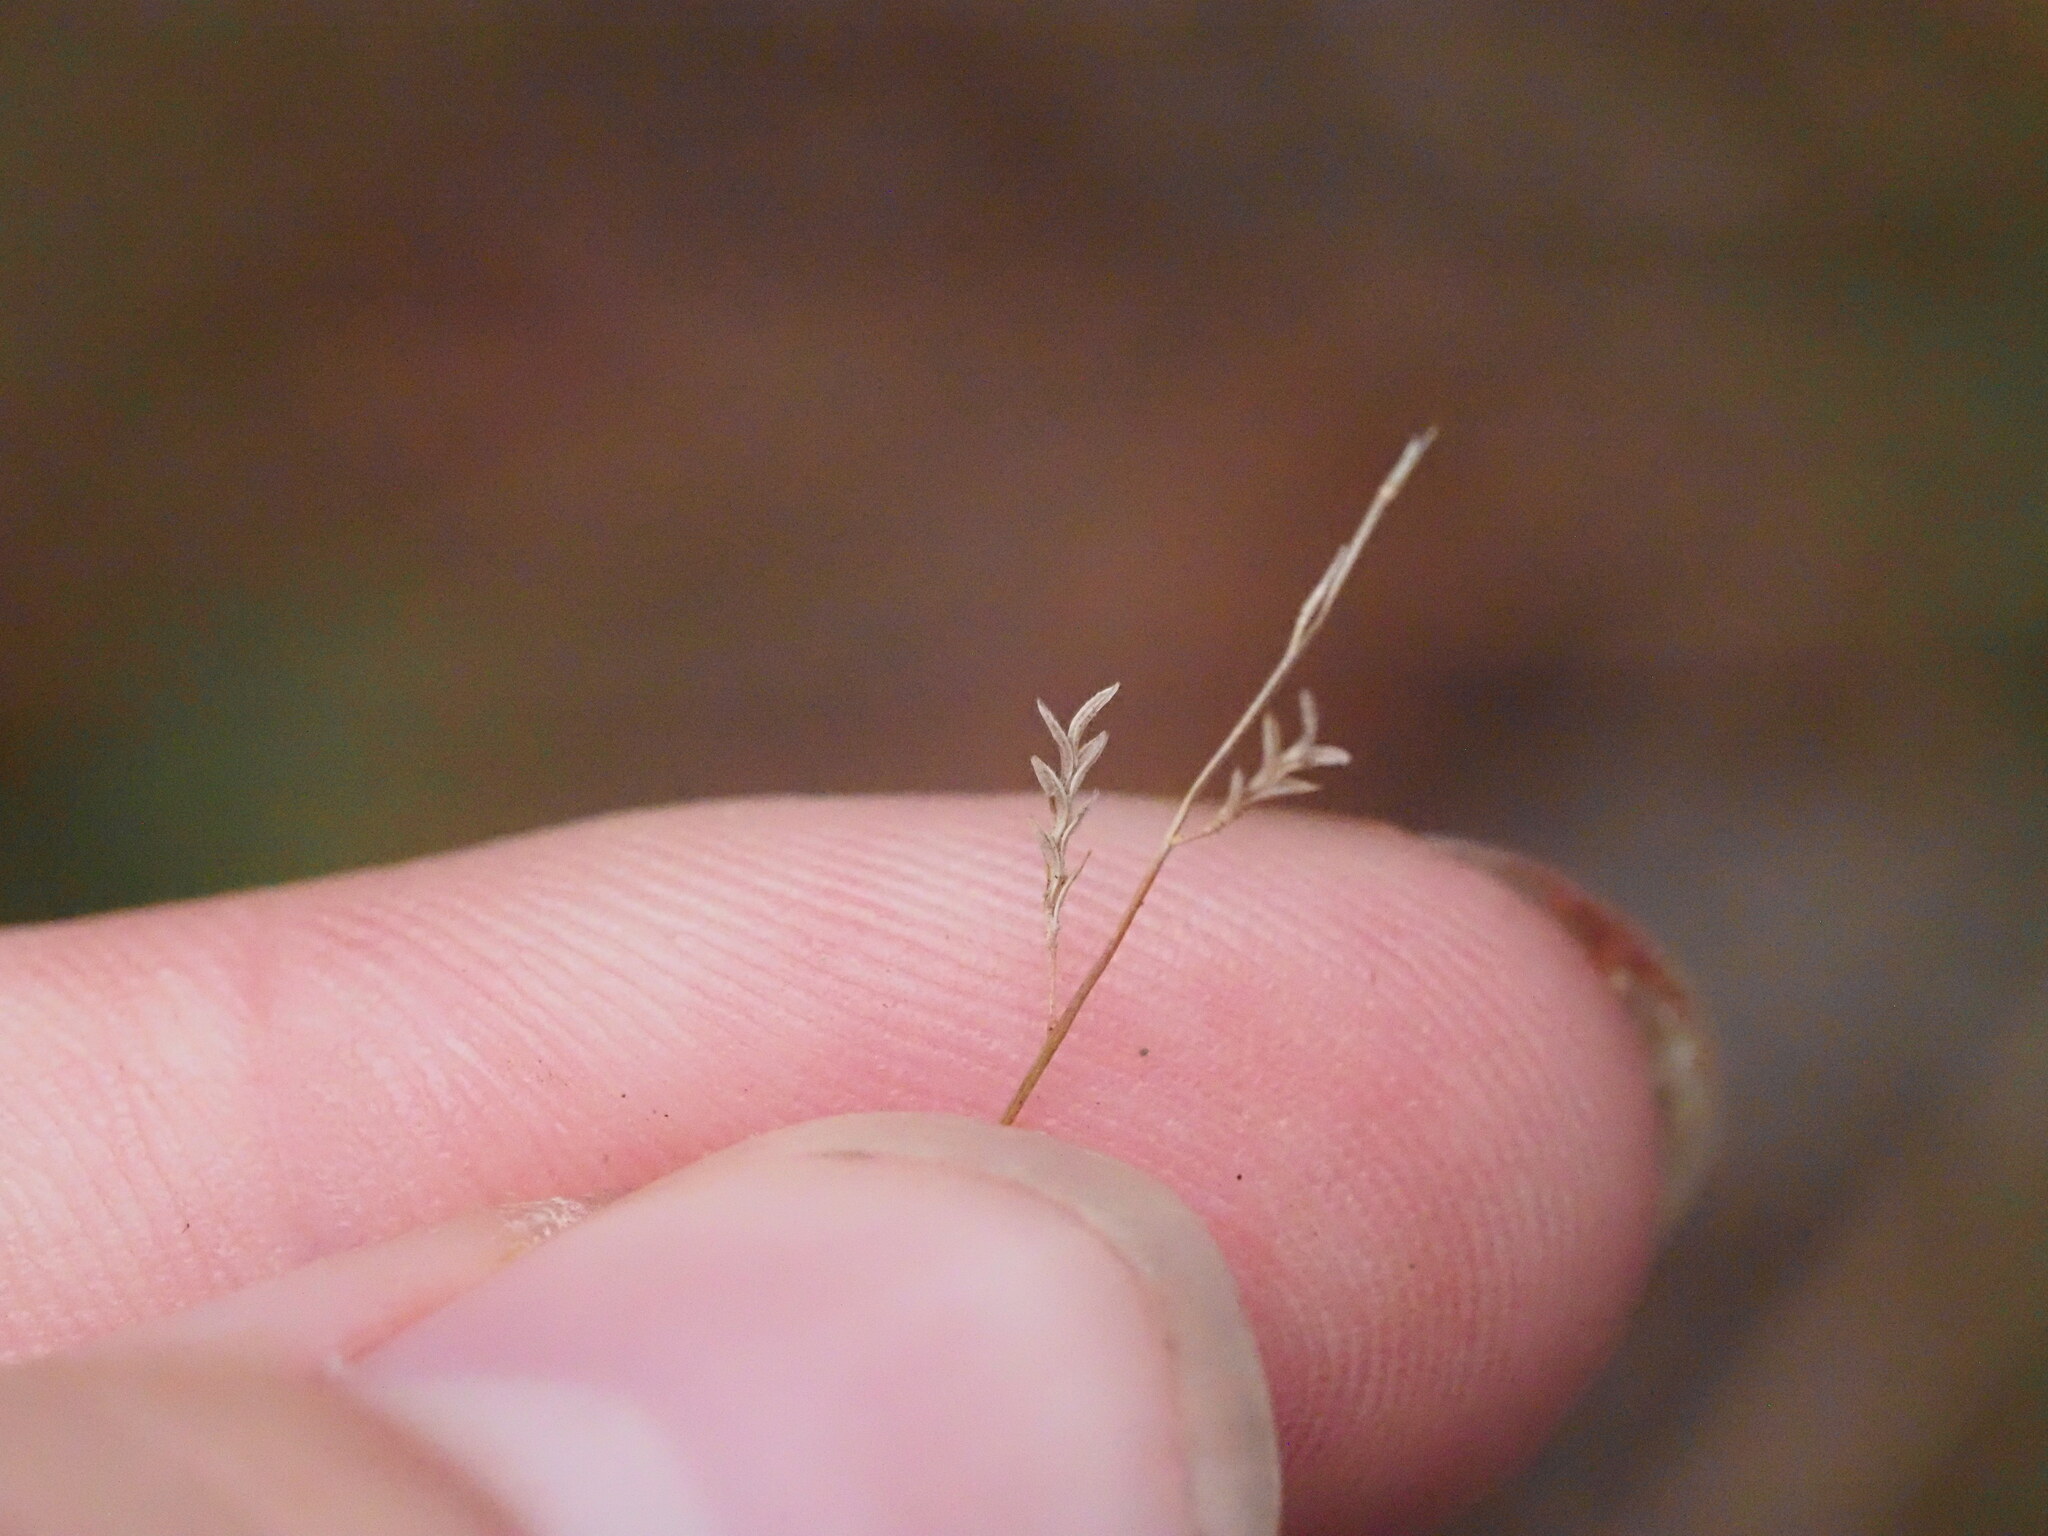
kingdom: Plantae
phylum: Tracheophyta
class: Liliopsida
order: Poales
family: Poaceae
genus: Eragrostis
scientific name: Eragrostis brownii
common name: Lovegrass
